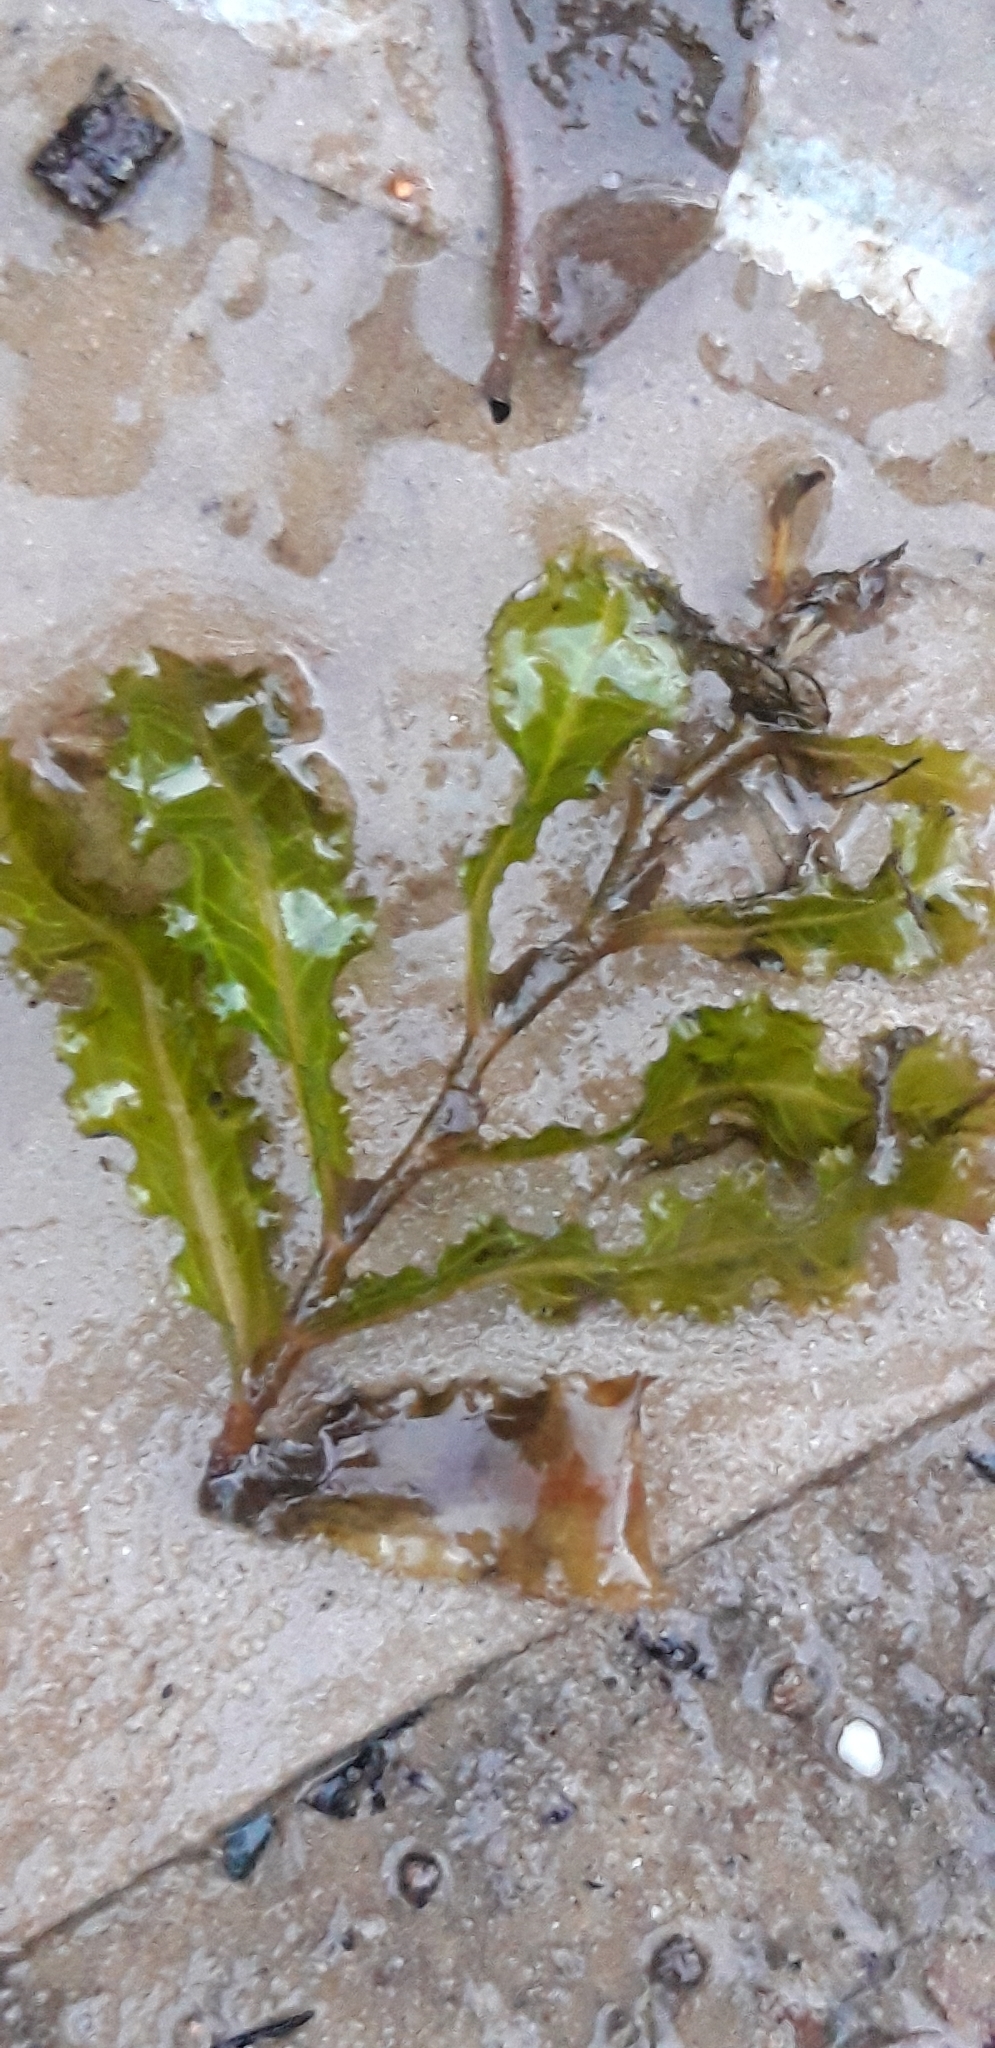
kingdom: Plantae
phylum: Tracheophyta
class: Liliopsida
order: Alismatales
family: Potamogetonaceae
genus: Potamogeton
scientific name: Potamogeton crispus
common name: Curled pondweed
